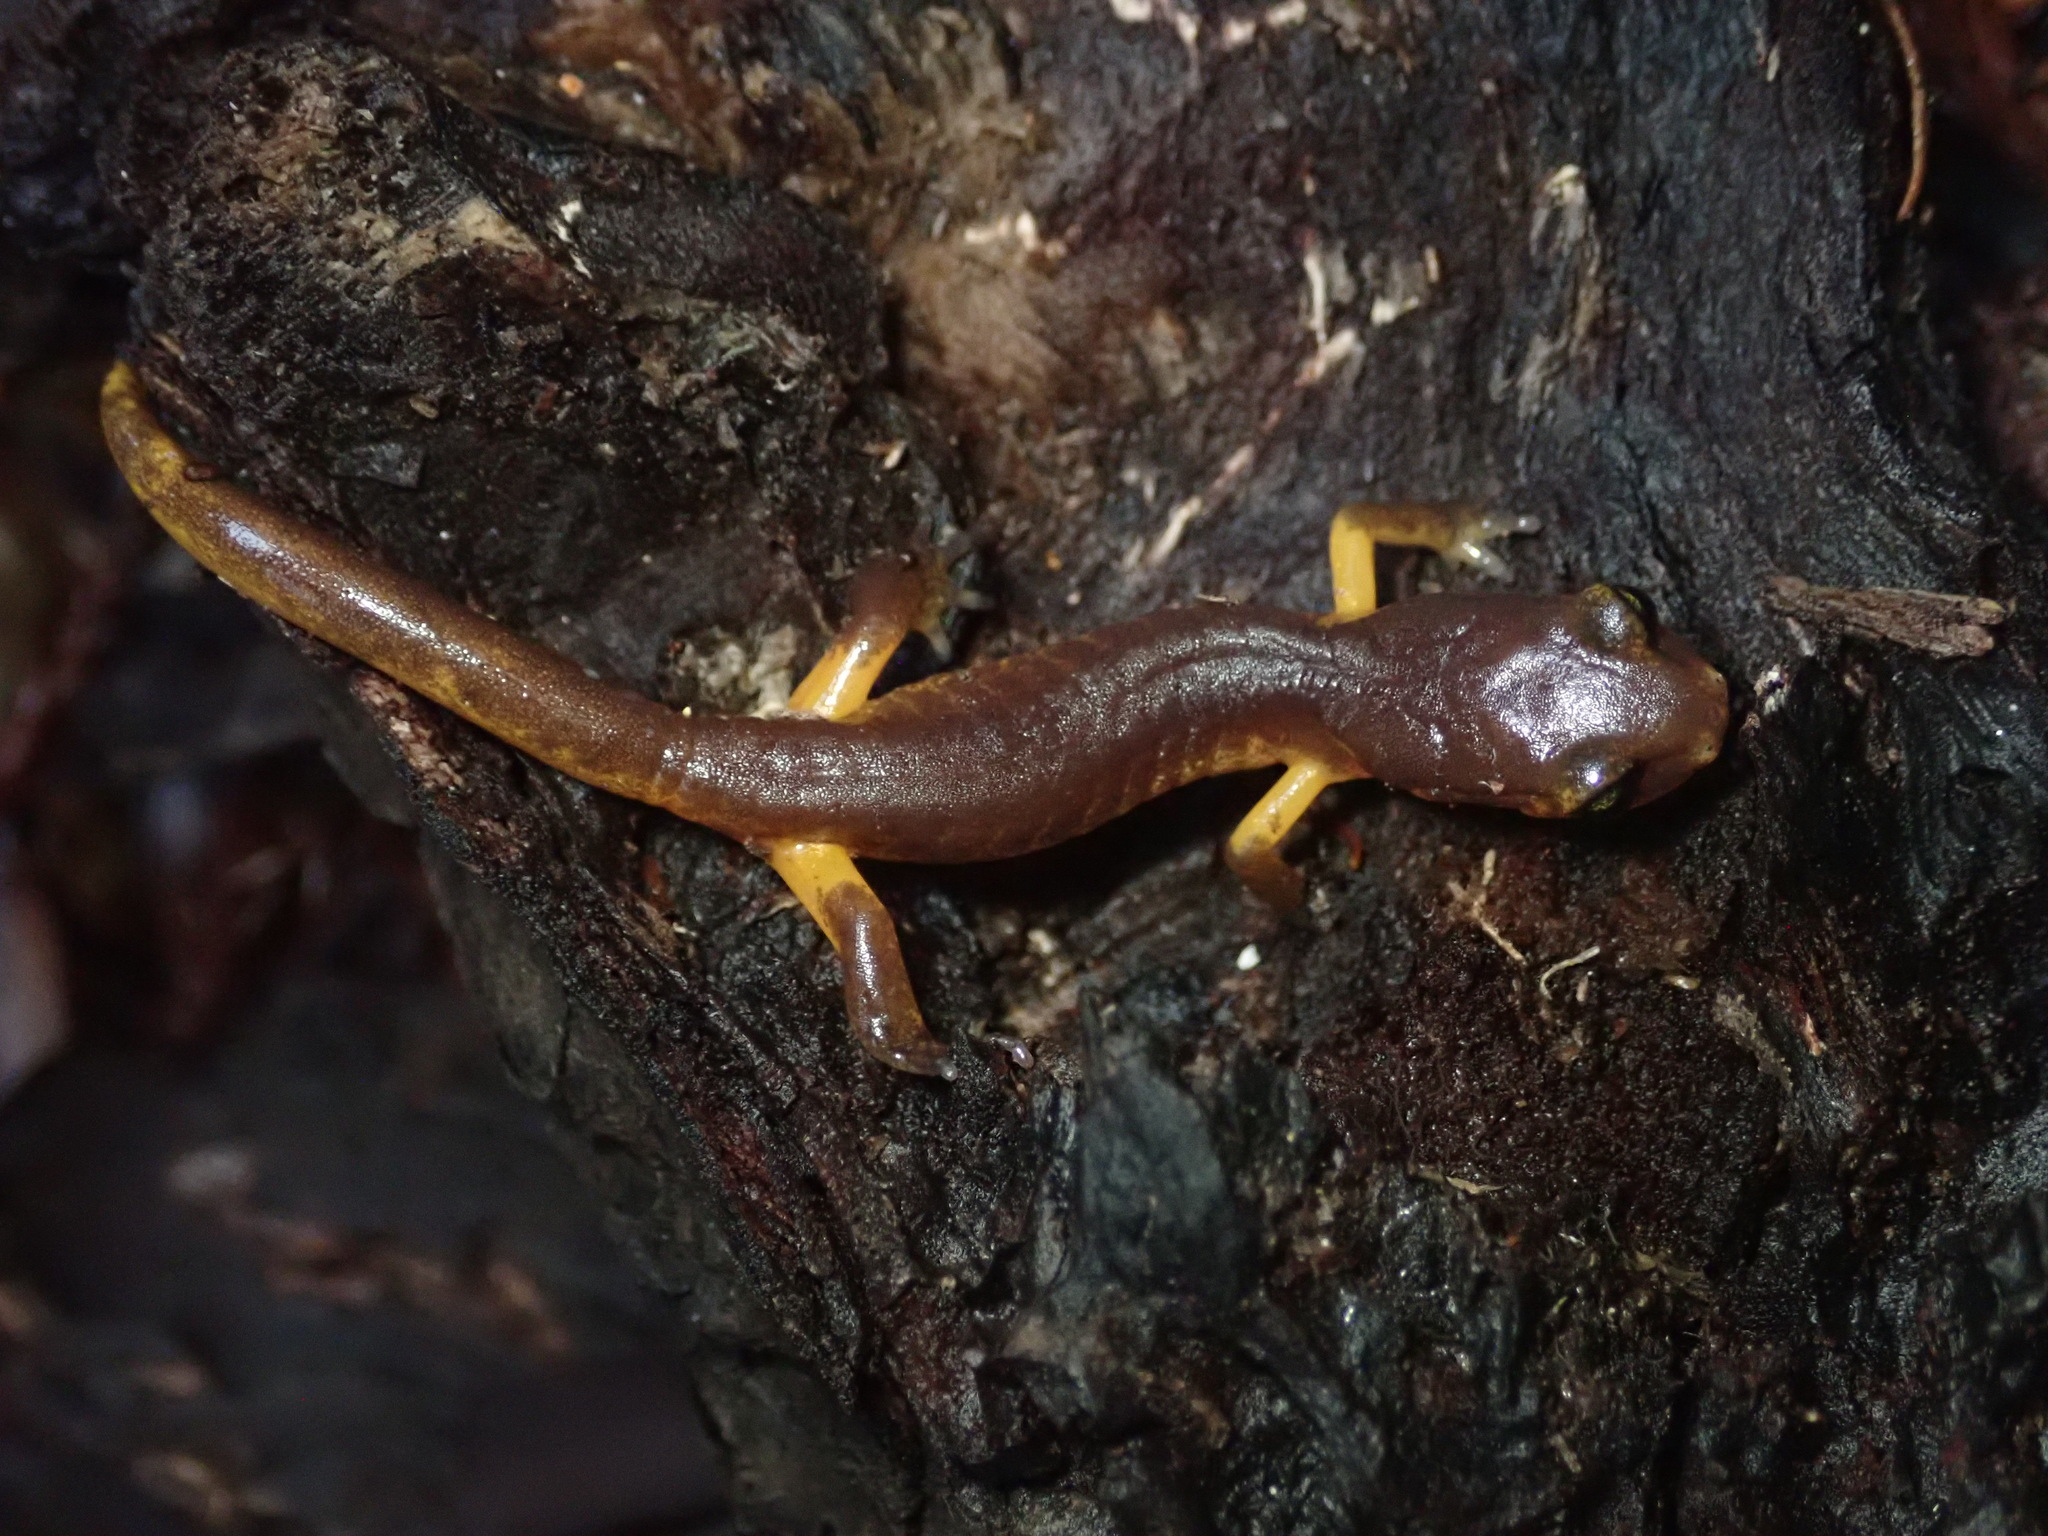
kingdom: Animalia
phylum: Chordata
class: Amphibia
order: Caudata
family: Plethodontidae
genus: Ensatina
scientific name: Ensatina eschscholtzii
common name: Ensatina
